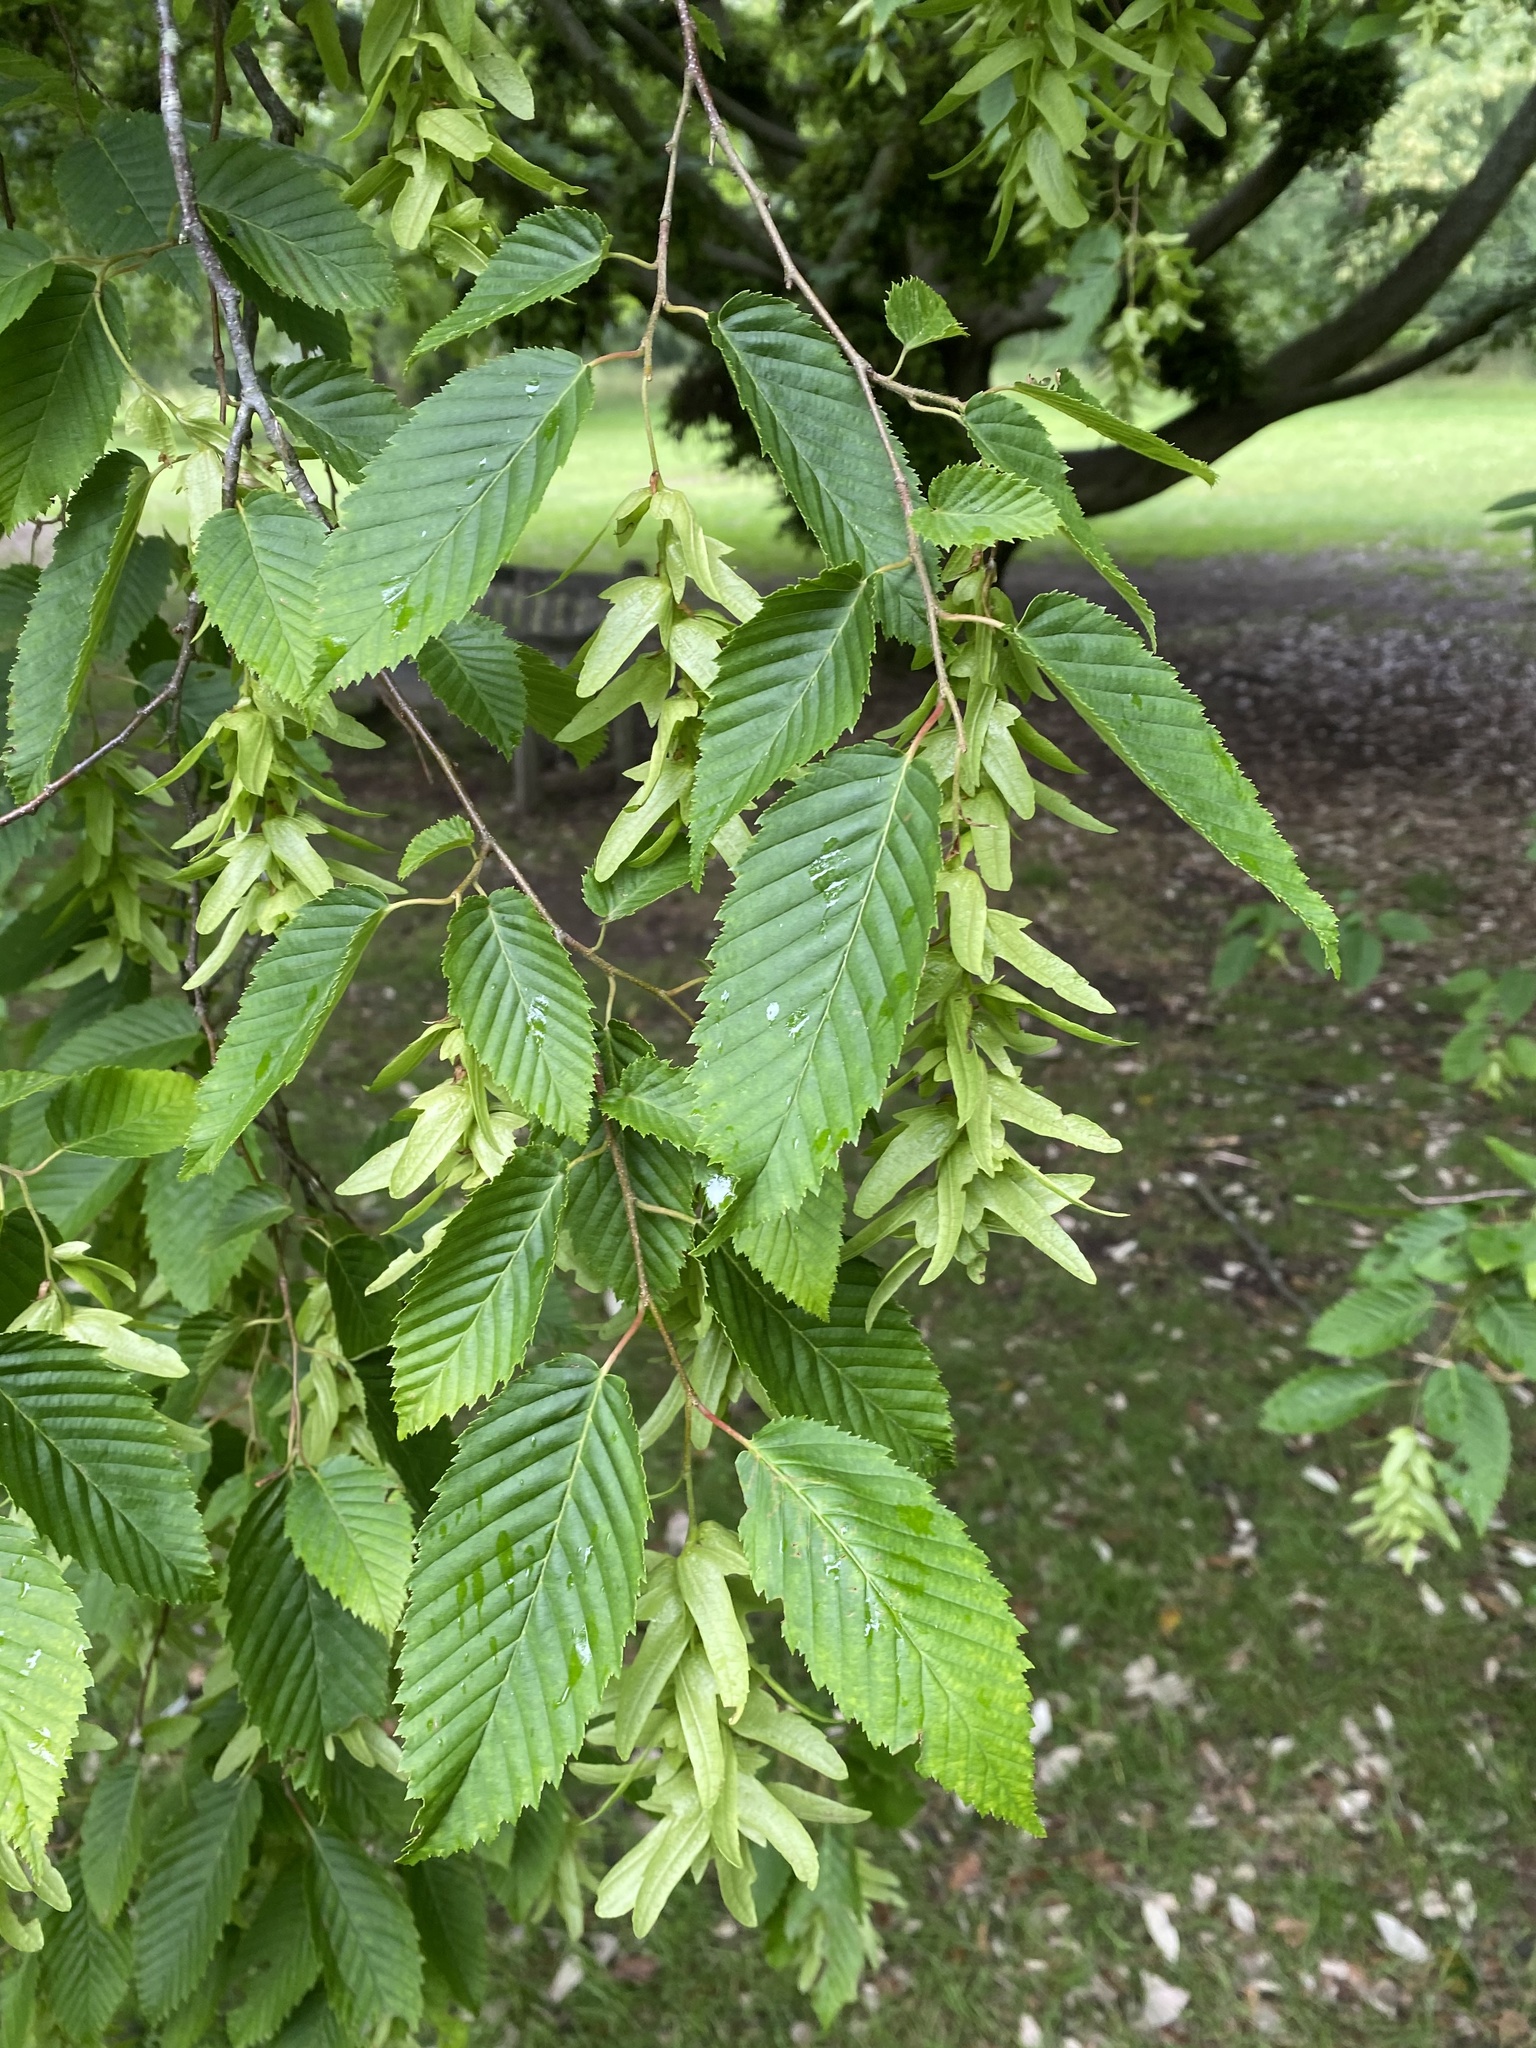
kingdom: Plantae
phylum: Tracheophyta
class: Magnoliopsida
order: Fagales
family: Betulaceae
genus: Carpinus
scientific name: Carpinus betulus
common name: Hornbeam
